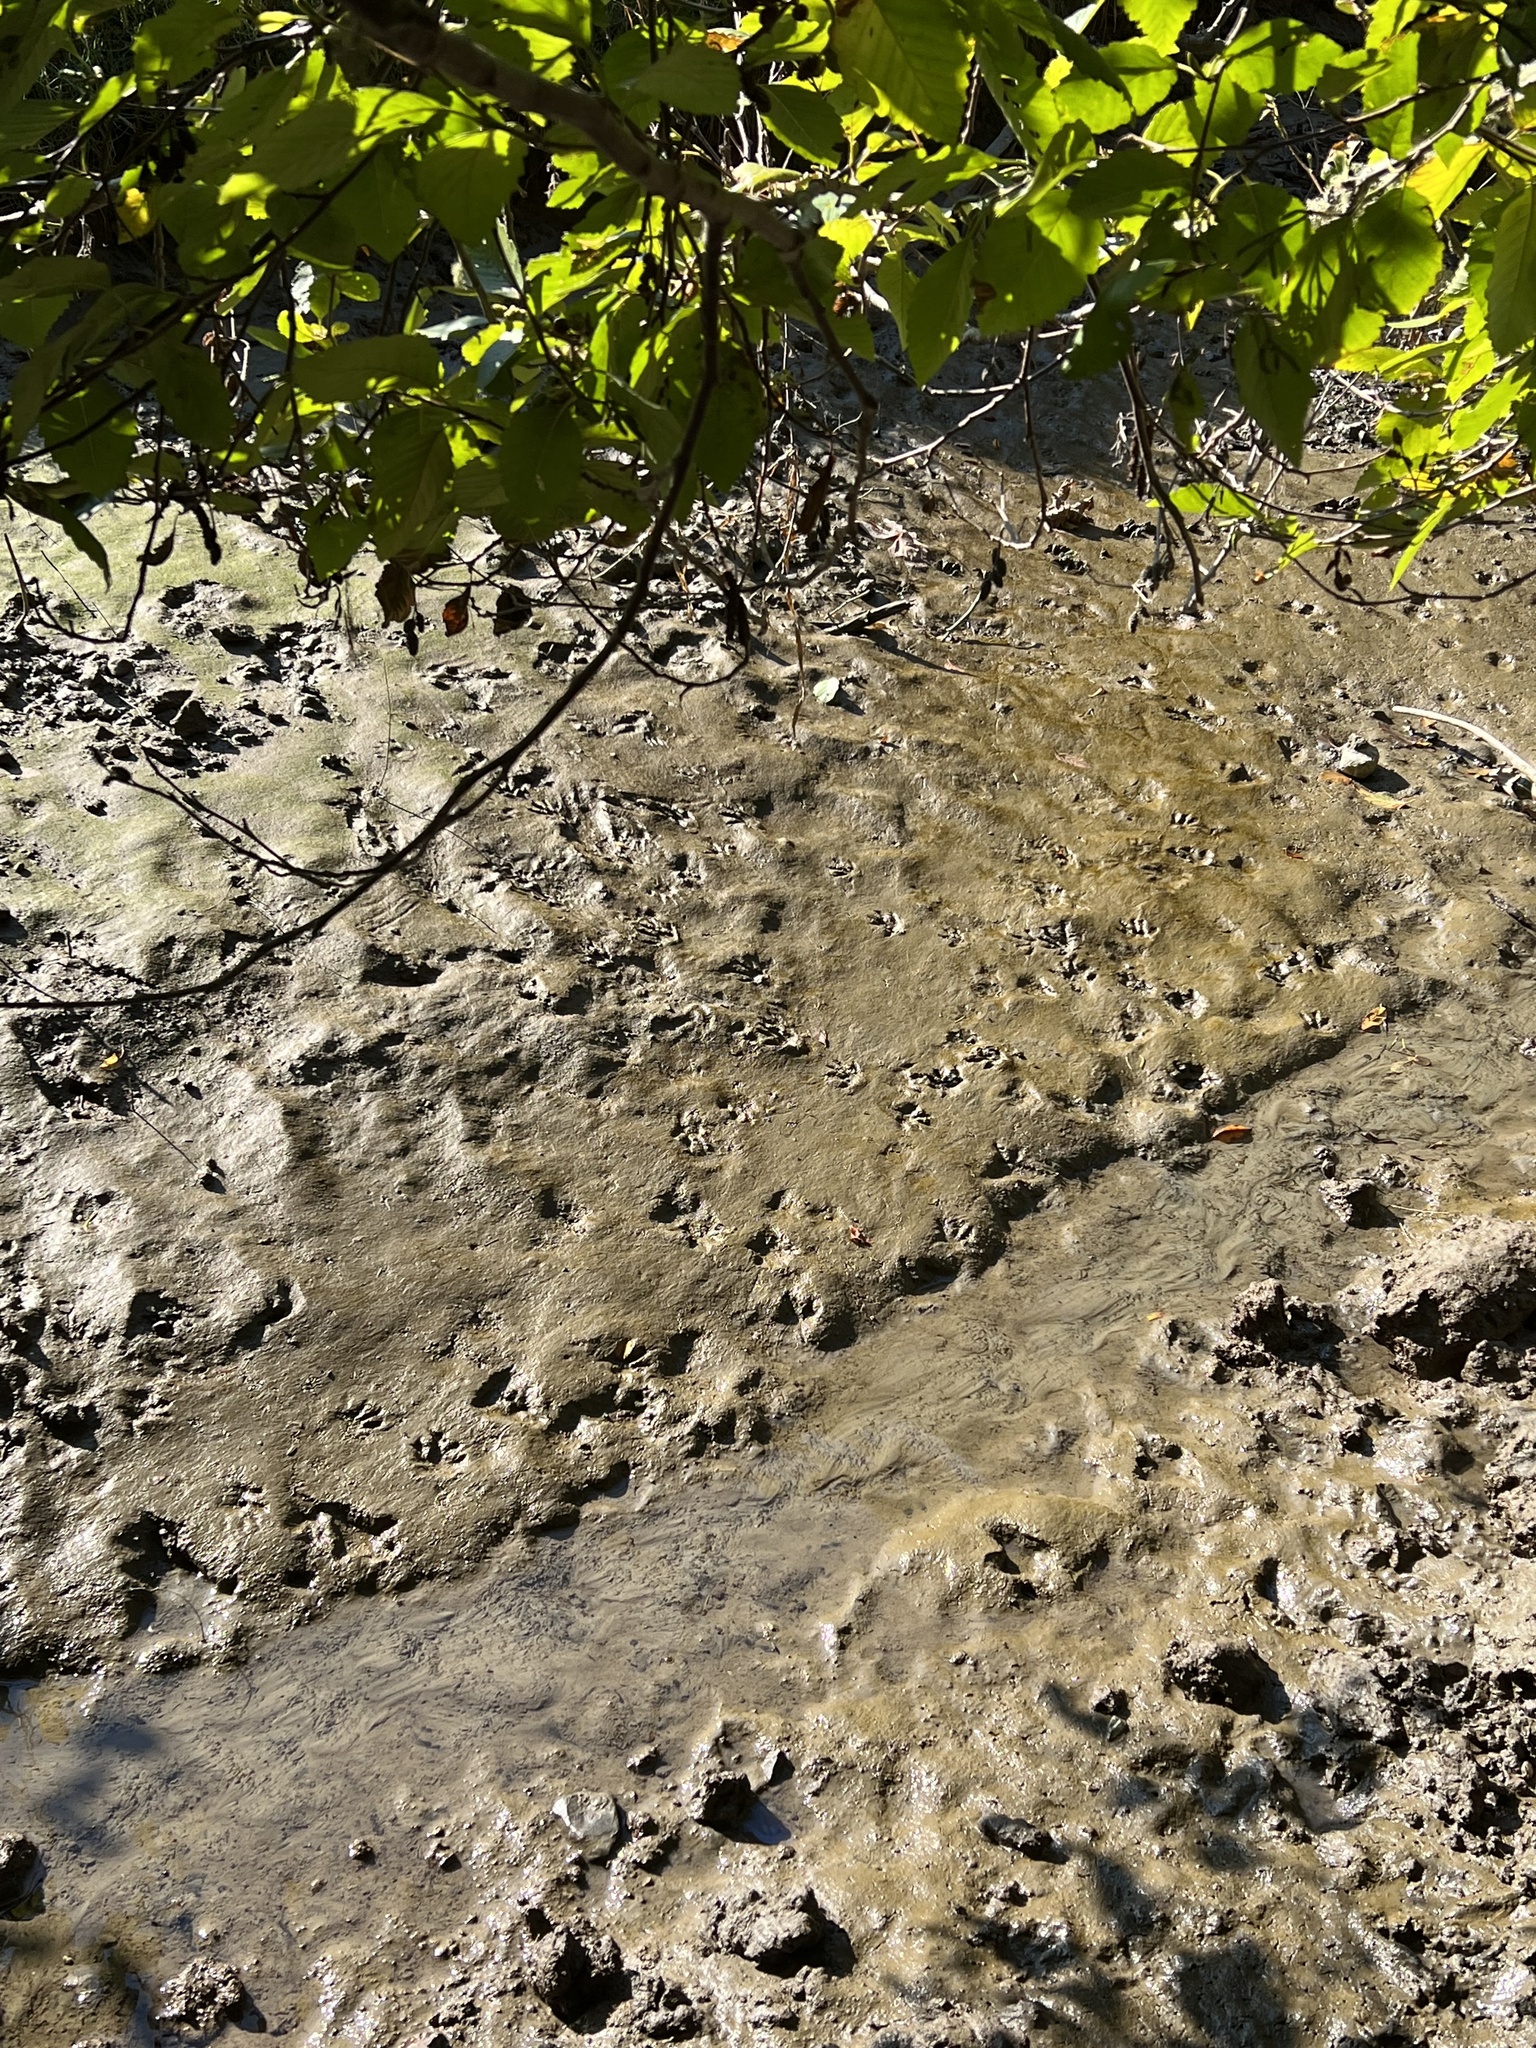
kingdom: Animalia
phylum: Chordata
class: Mammalia
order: Carnivora
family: Procyonidae
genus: Procyon
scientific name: Procyon lotor
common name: Raccoon
